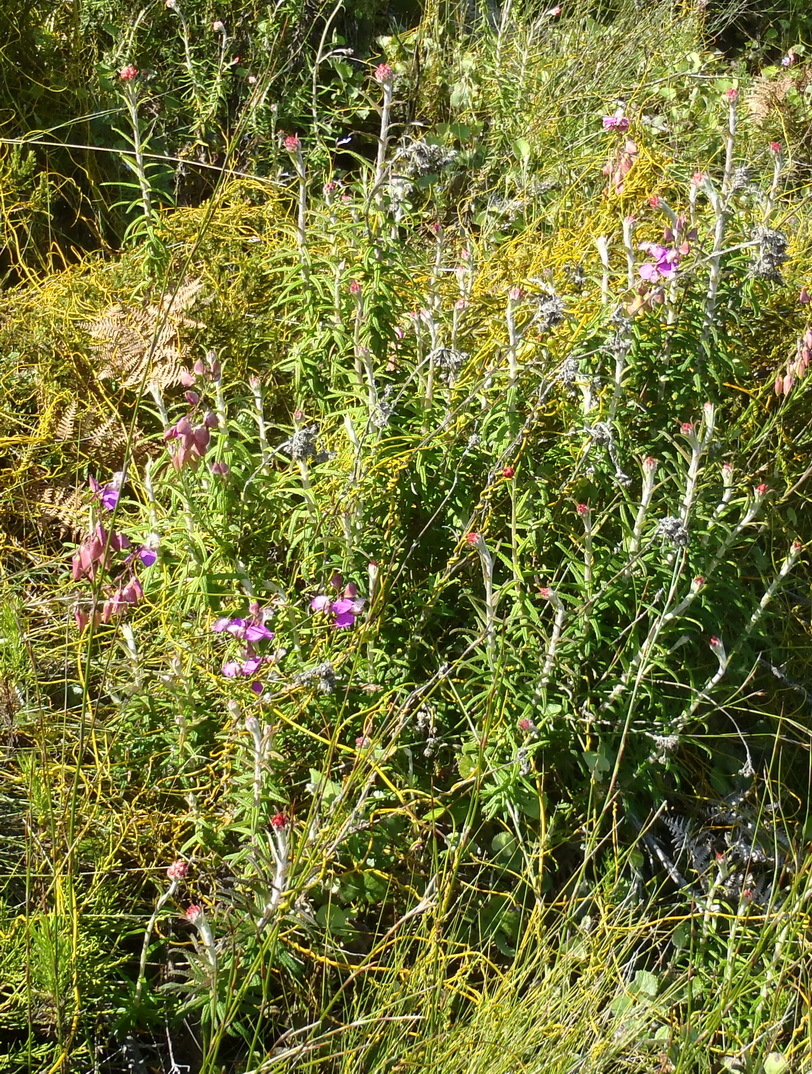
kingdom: Plantae
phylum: Tracheophyta
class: Magnoliopsida
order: Asterales
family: Asteraceae
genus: Helichrysum
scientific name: Helichrysum felinum
